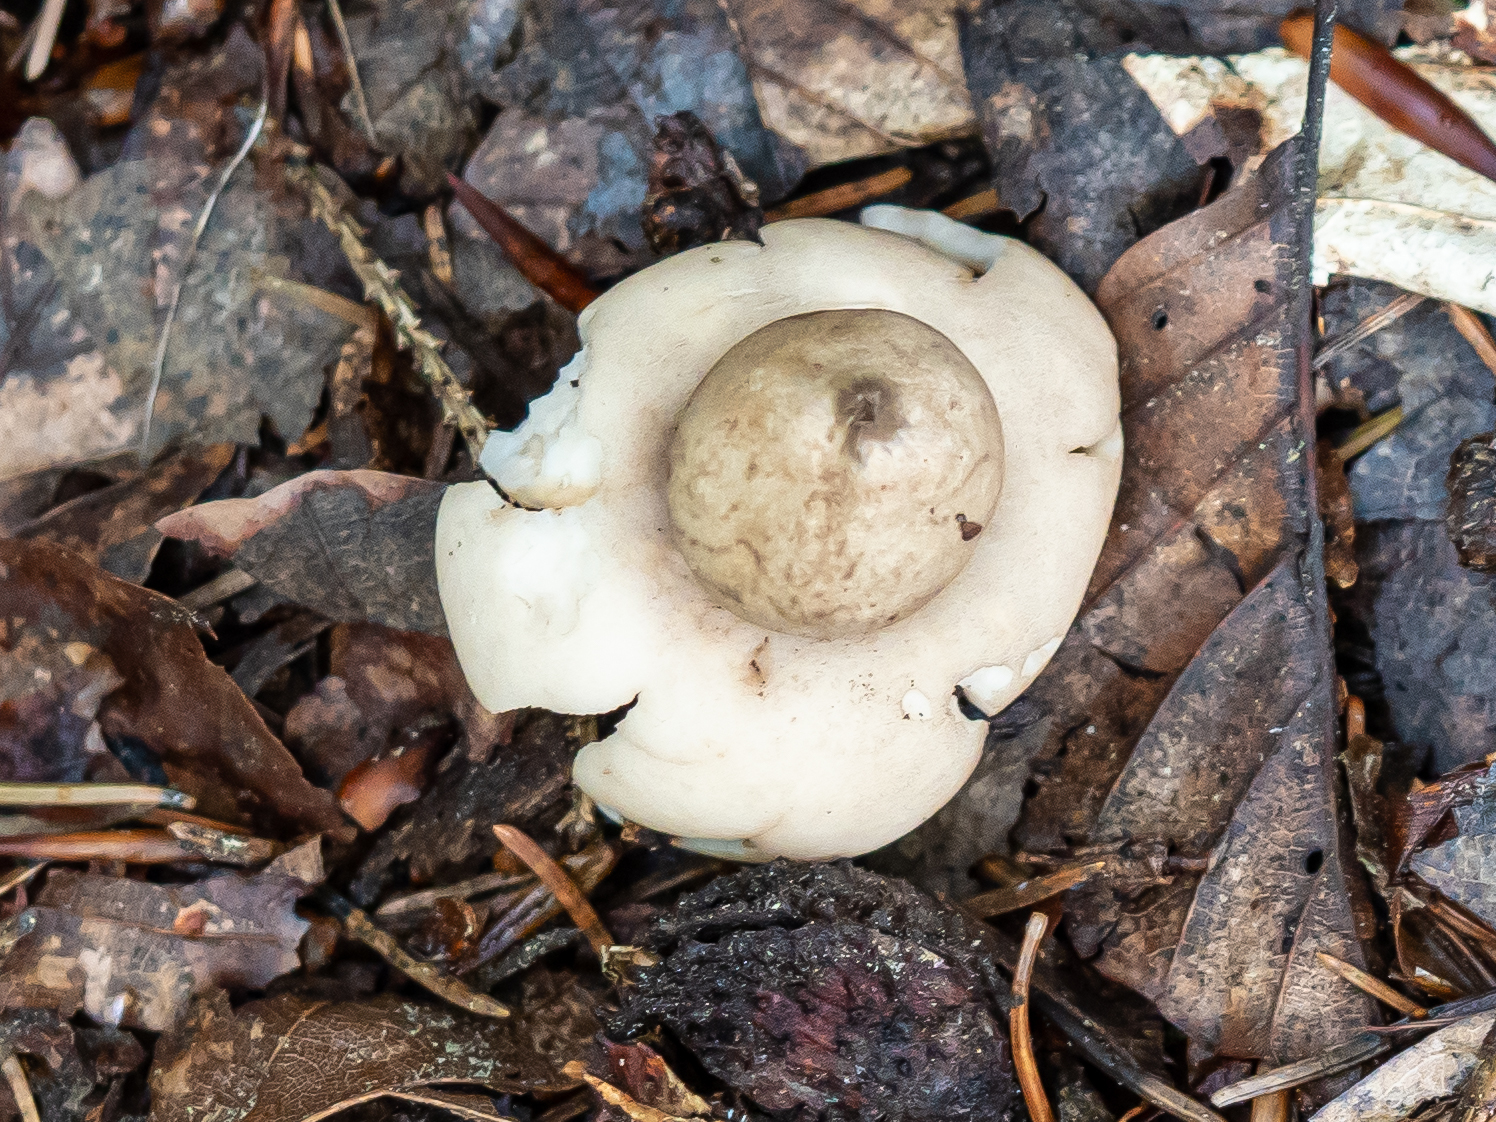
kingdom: Fungi
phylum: Basidiomycota
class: Agaricomycetes
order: Geastrales
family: Geastraceae
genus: Geastrum
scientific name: Geastrum fimbriatum
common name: Sessile earthstar
